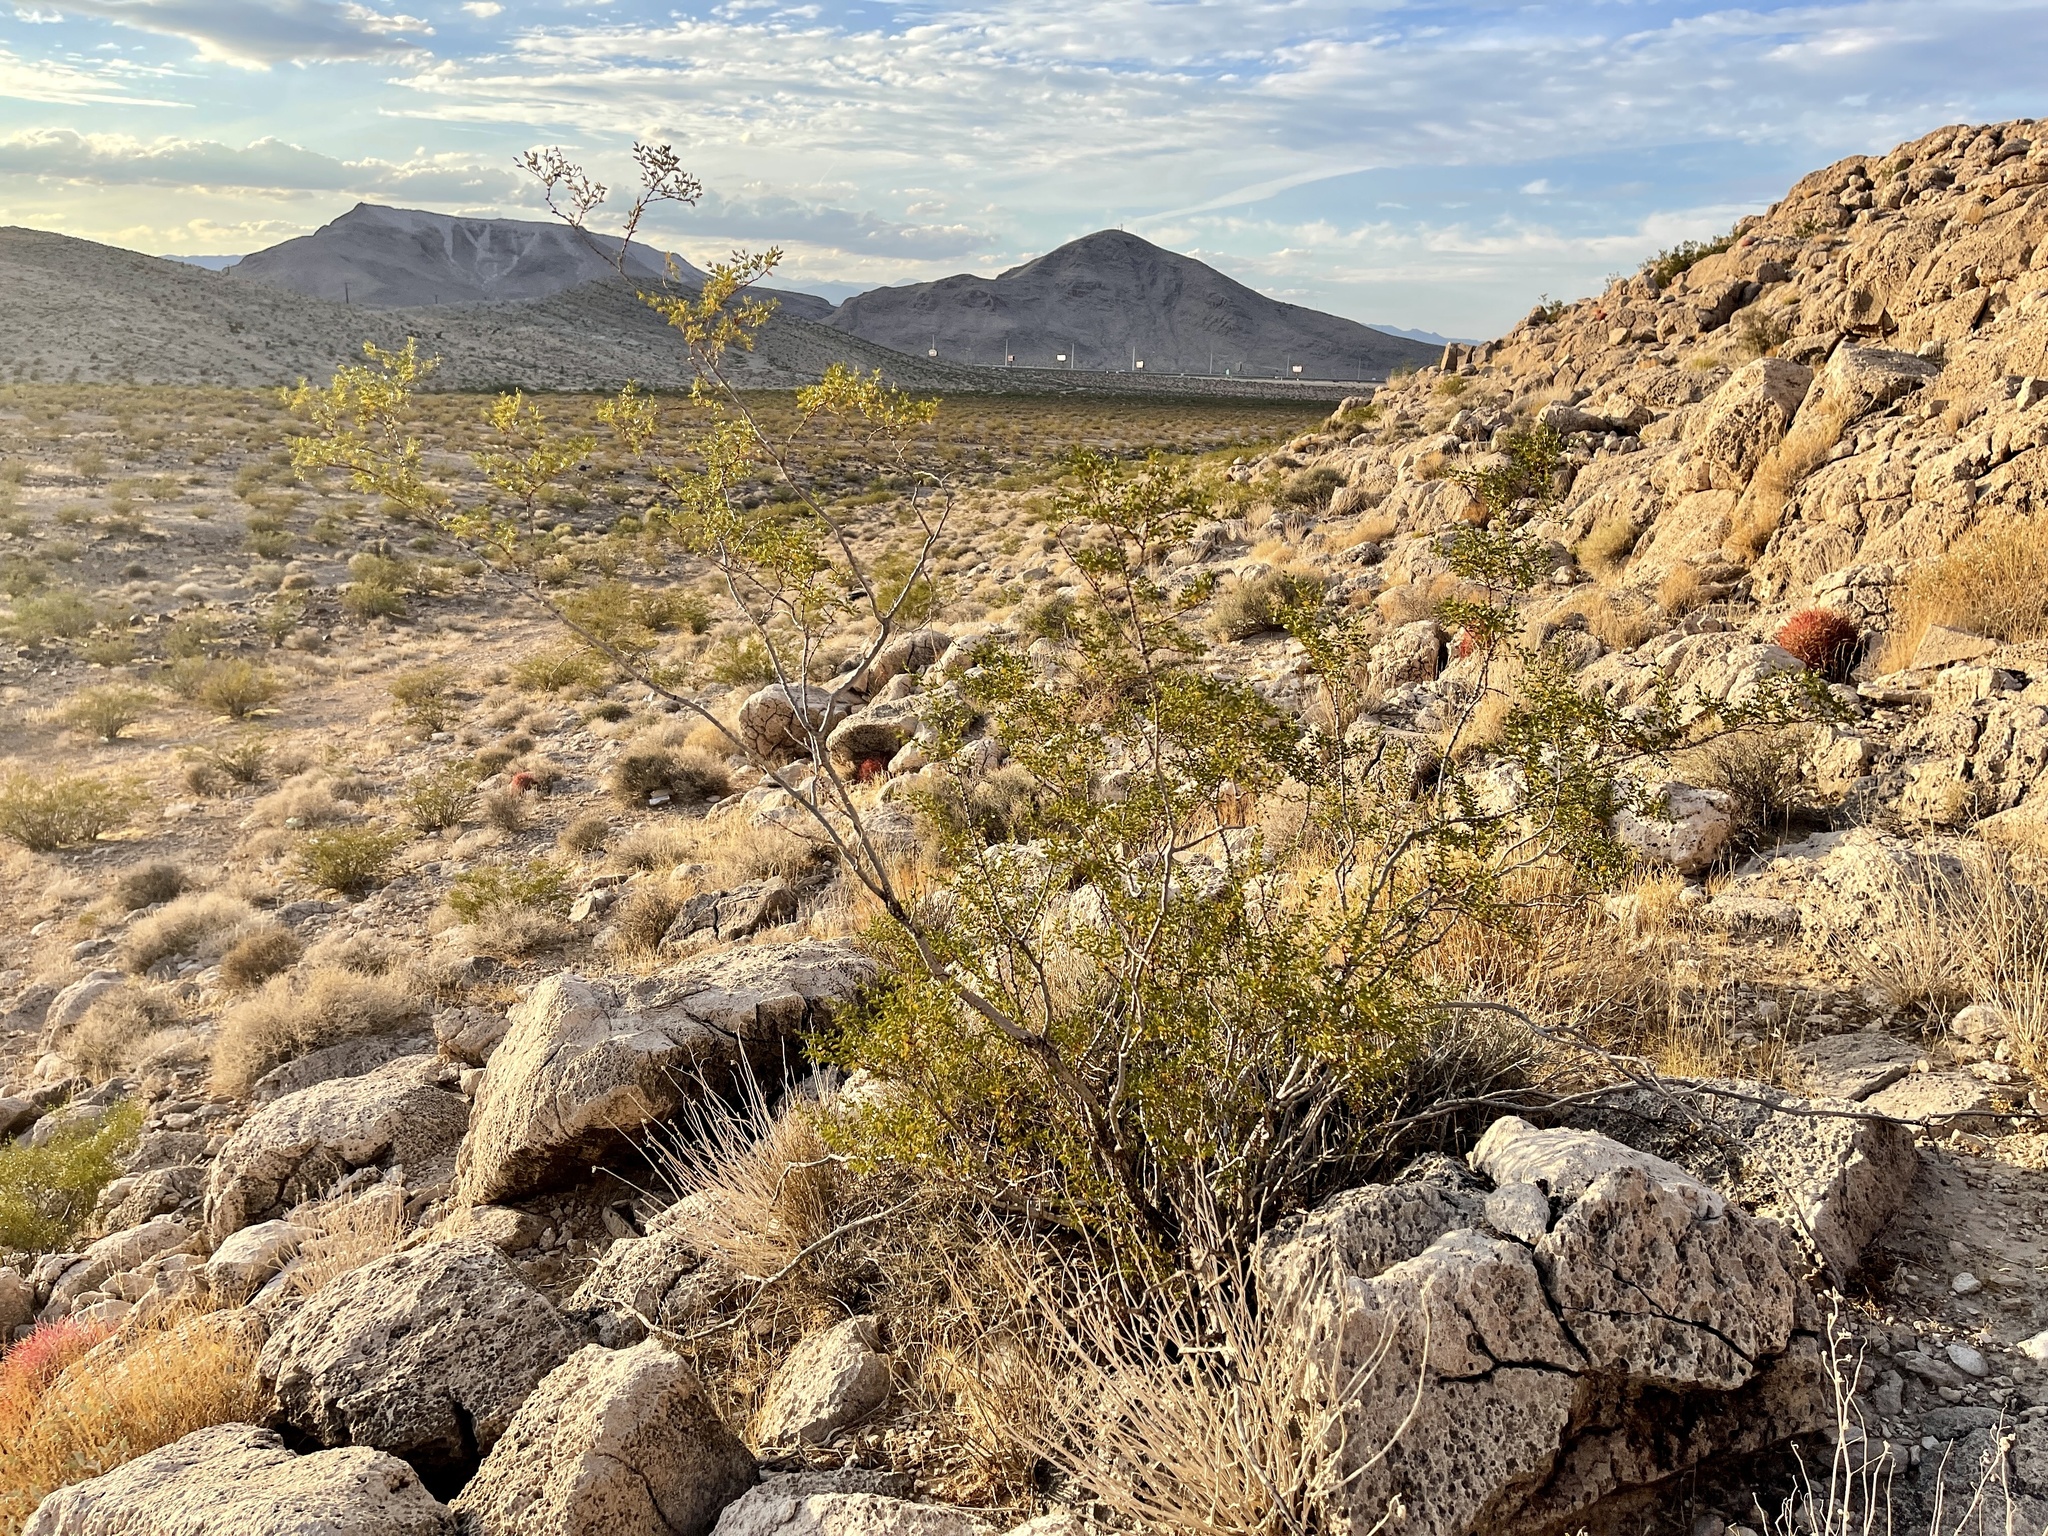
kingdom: Plantae
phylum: Tracheophyta
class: Magnoliopsida
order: Zygophyllales
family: Zygophyllaceae
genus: Larrea
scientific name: Larrea tridentata
